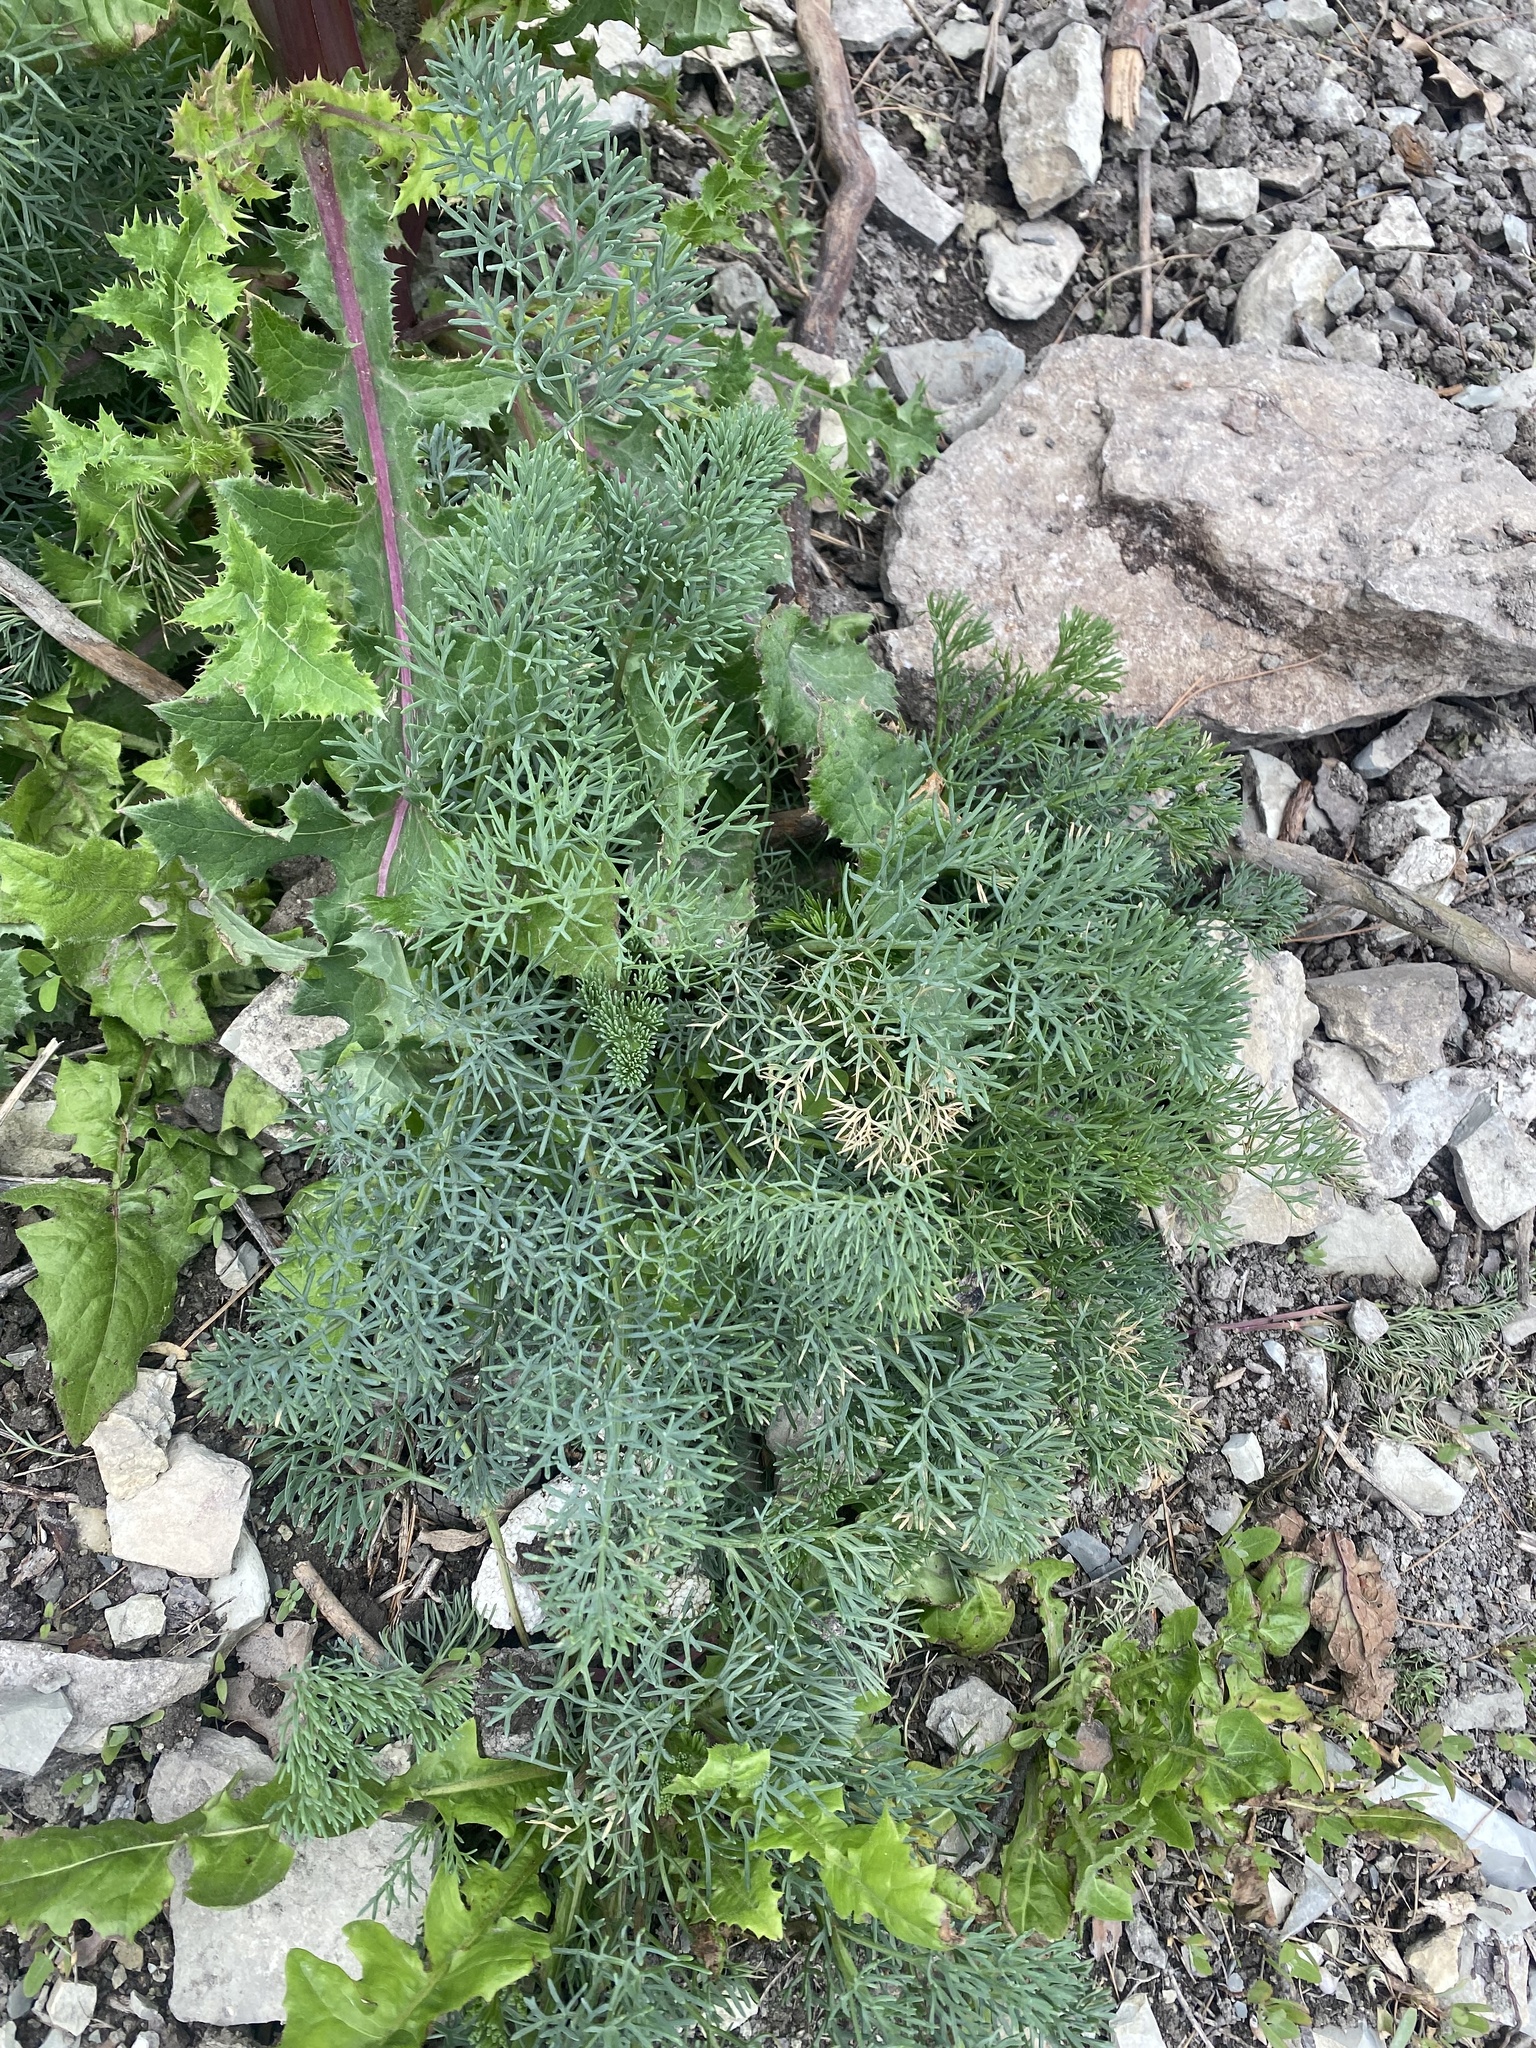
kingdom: Plantae
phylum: Tracheophyta
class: Magnoliopsida
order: Apiales
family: Apiaceae
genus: Seseli
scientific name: Seseli ponticum
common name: Pontic seseli
